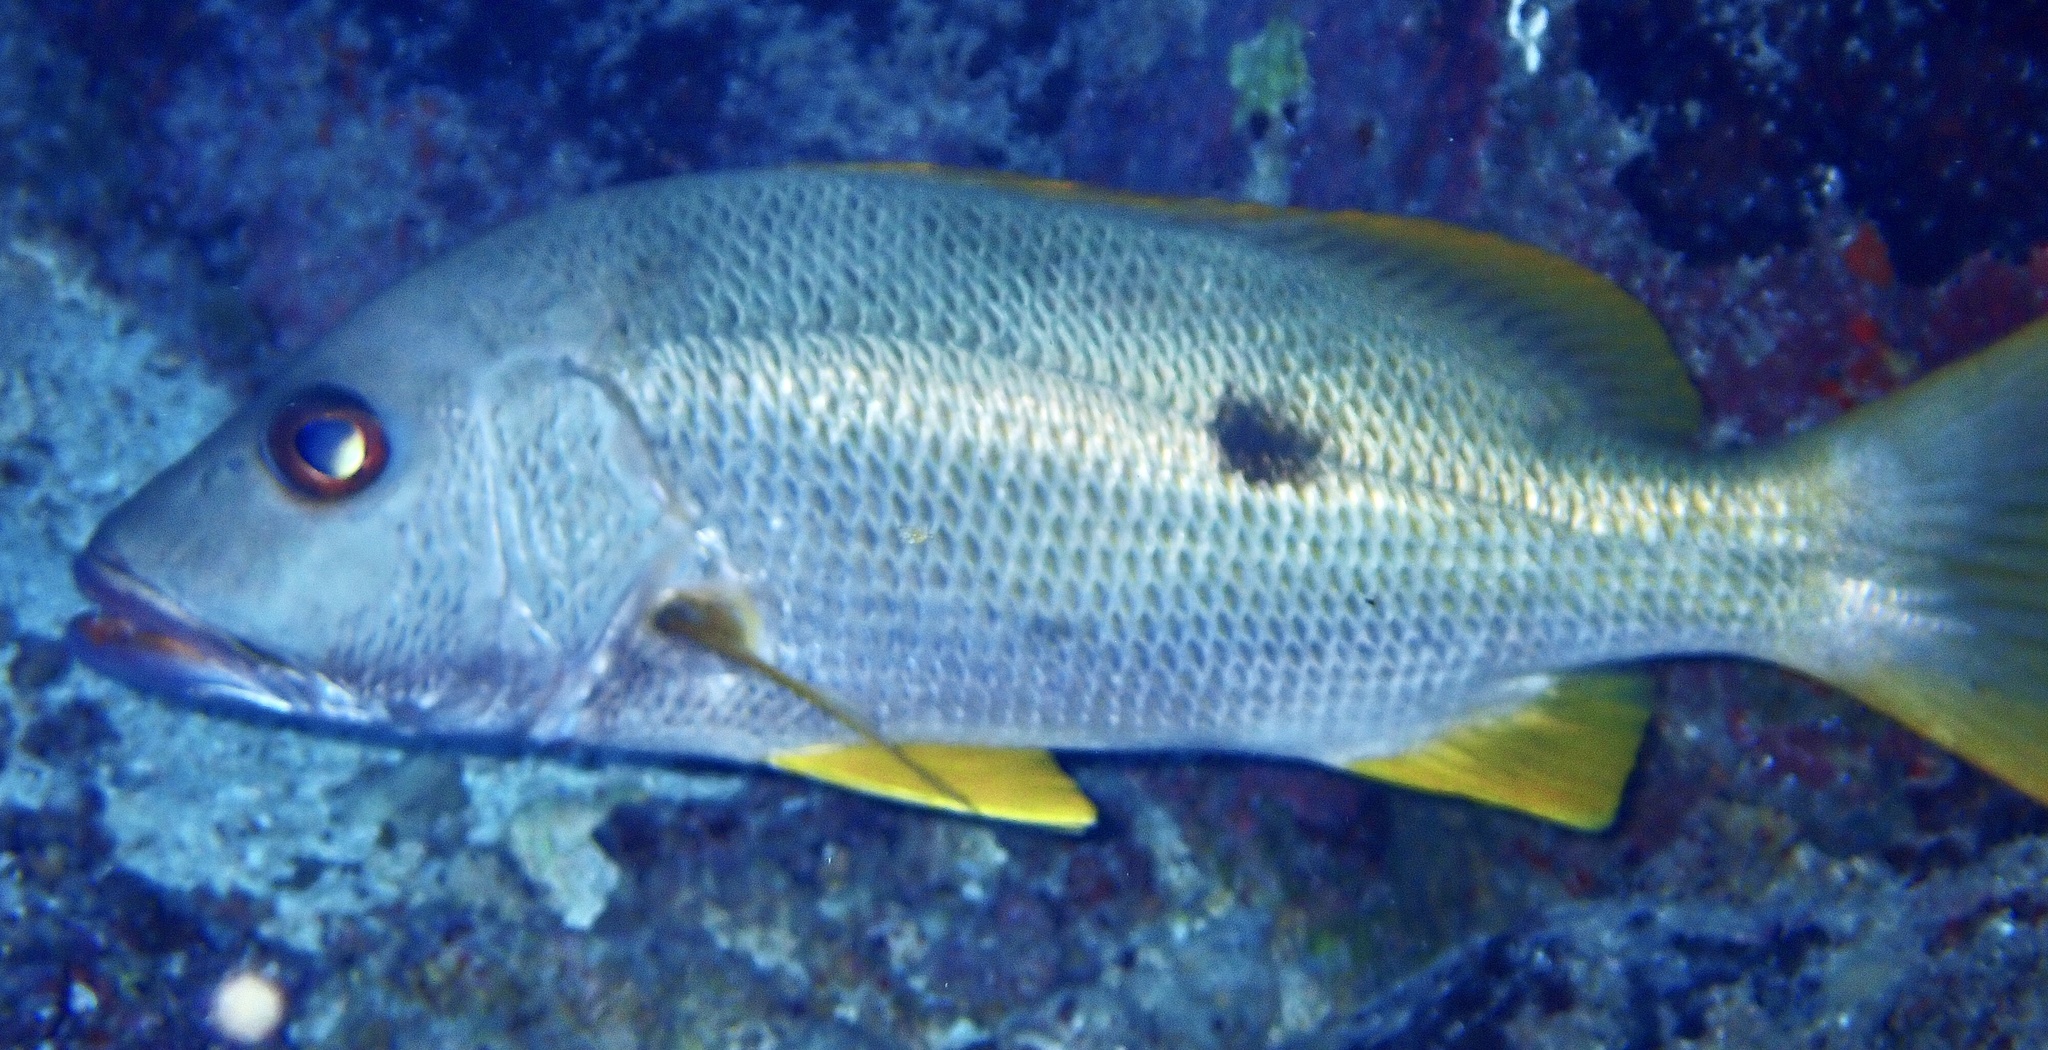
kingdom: Animalia
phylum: Chordata
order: Perciformes
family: Lutjanidae
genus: Lutjanus
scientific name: Lutjanus monostigma
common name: Onespot snapper
